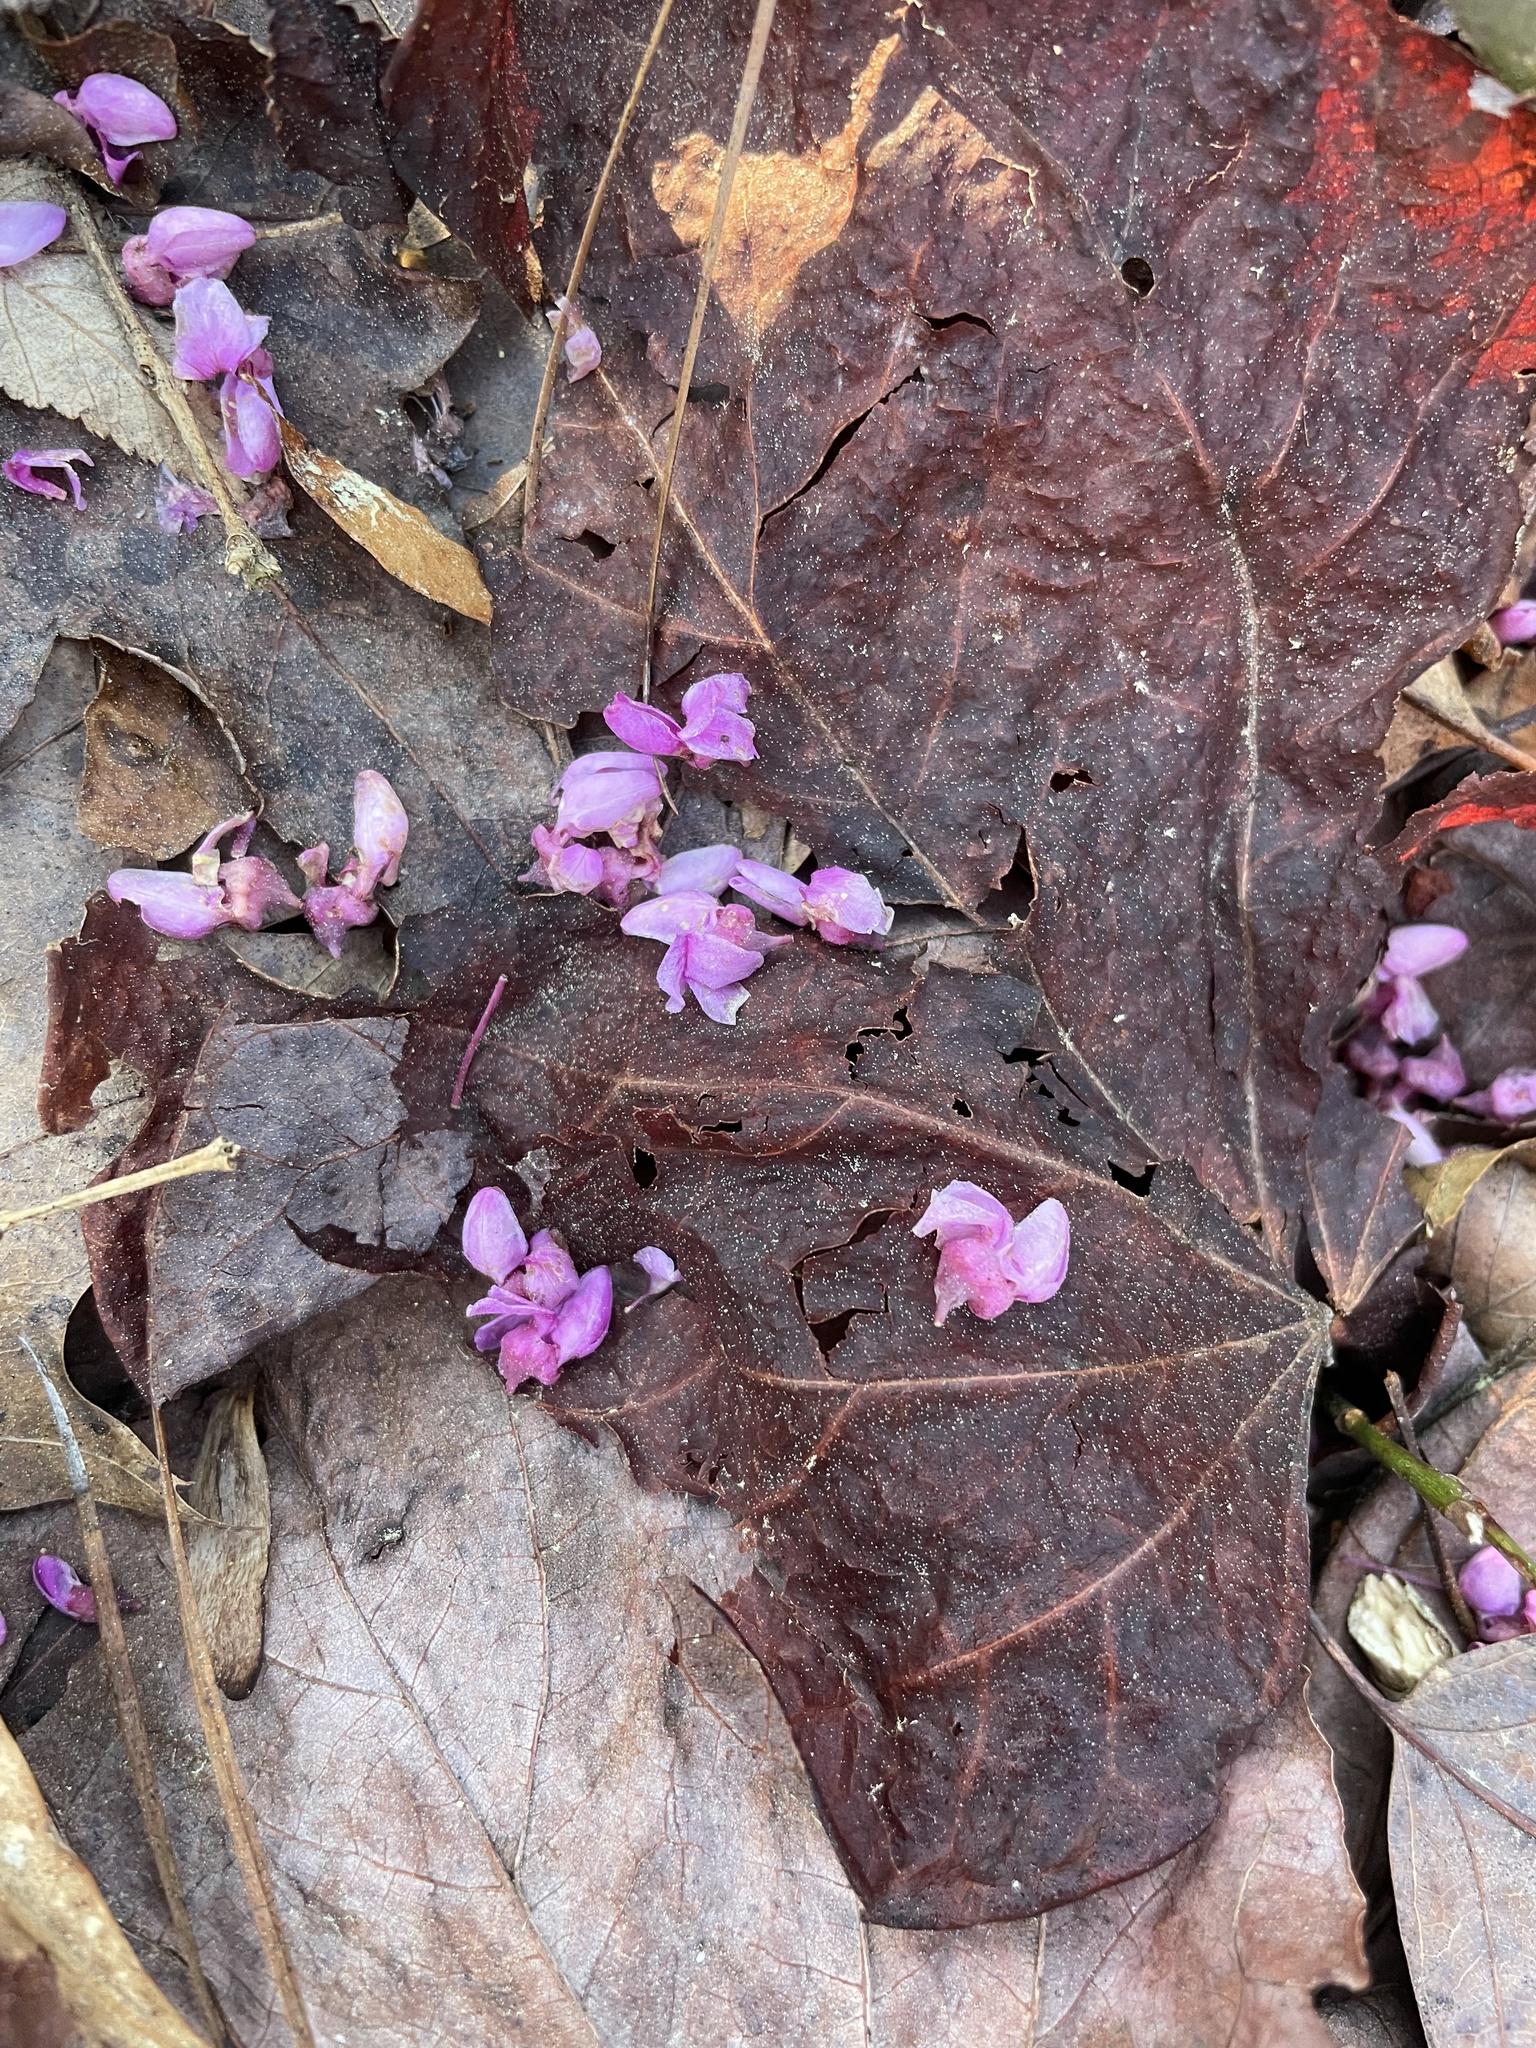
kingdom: Plantae
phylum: Tracheophyta
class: Magnoliopsida
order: Fabales
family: Fabaceae
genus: Cercis
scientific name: Cercis canadensis
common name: Eastern redbud
